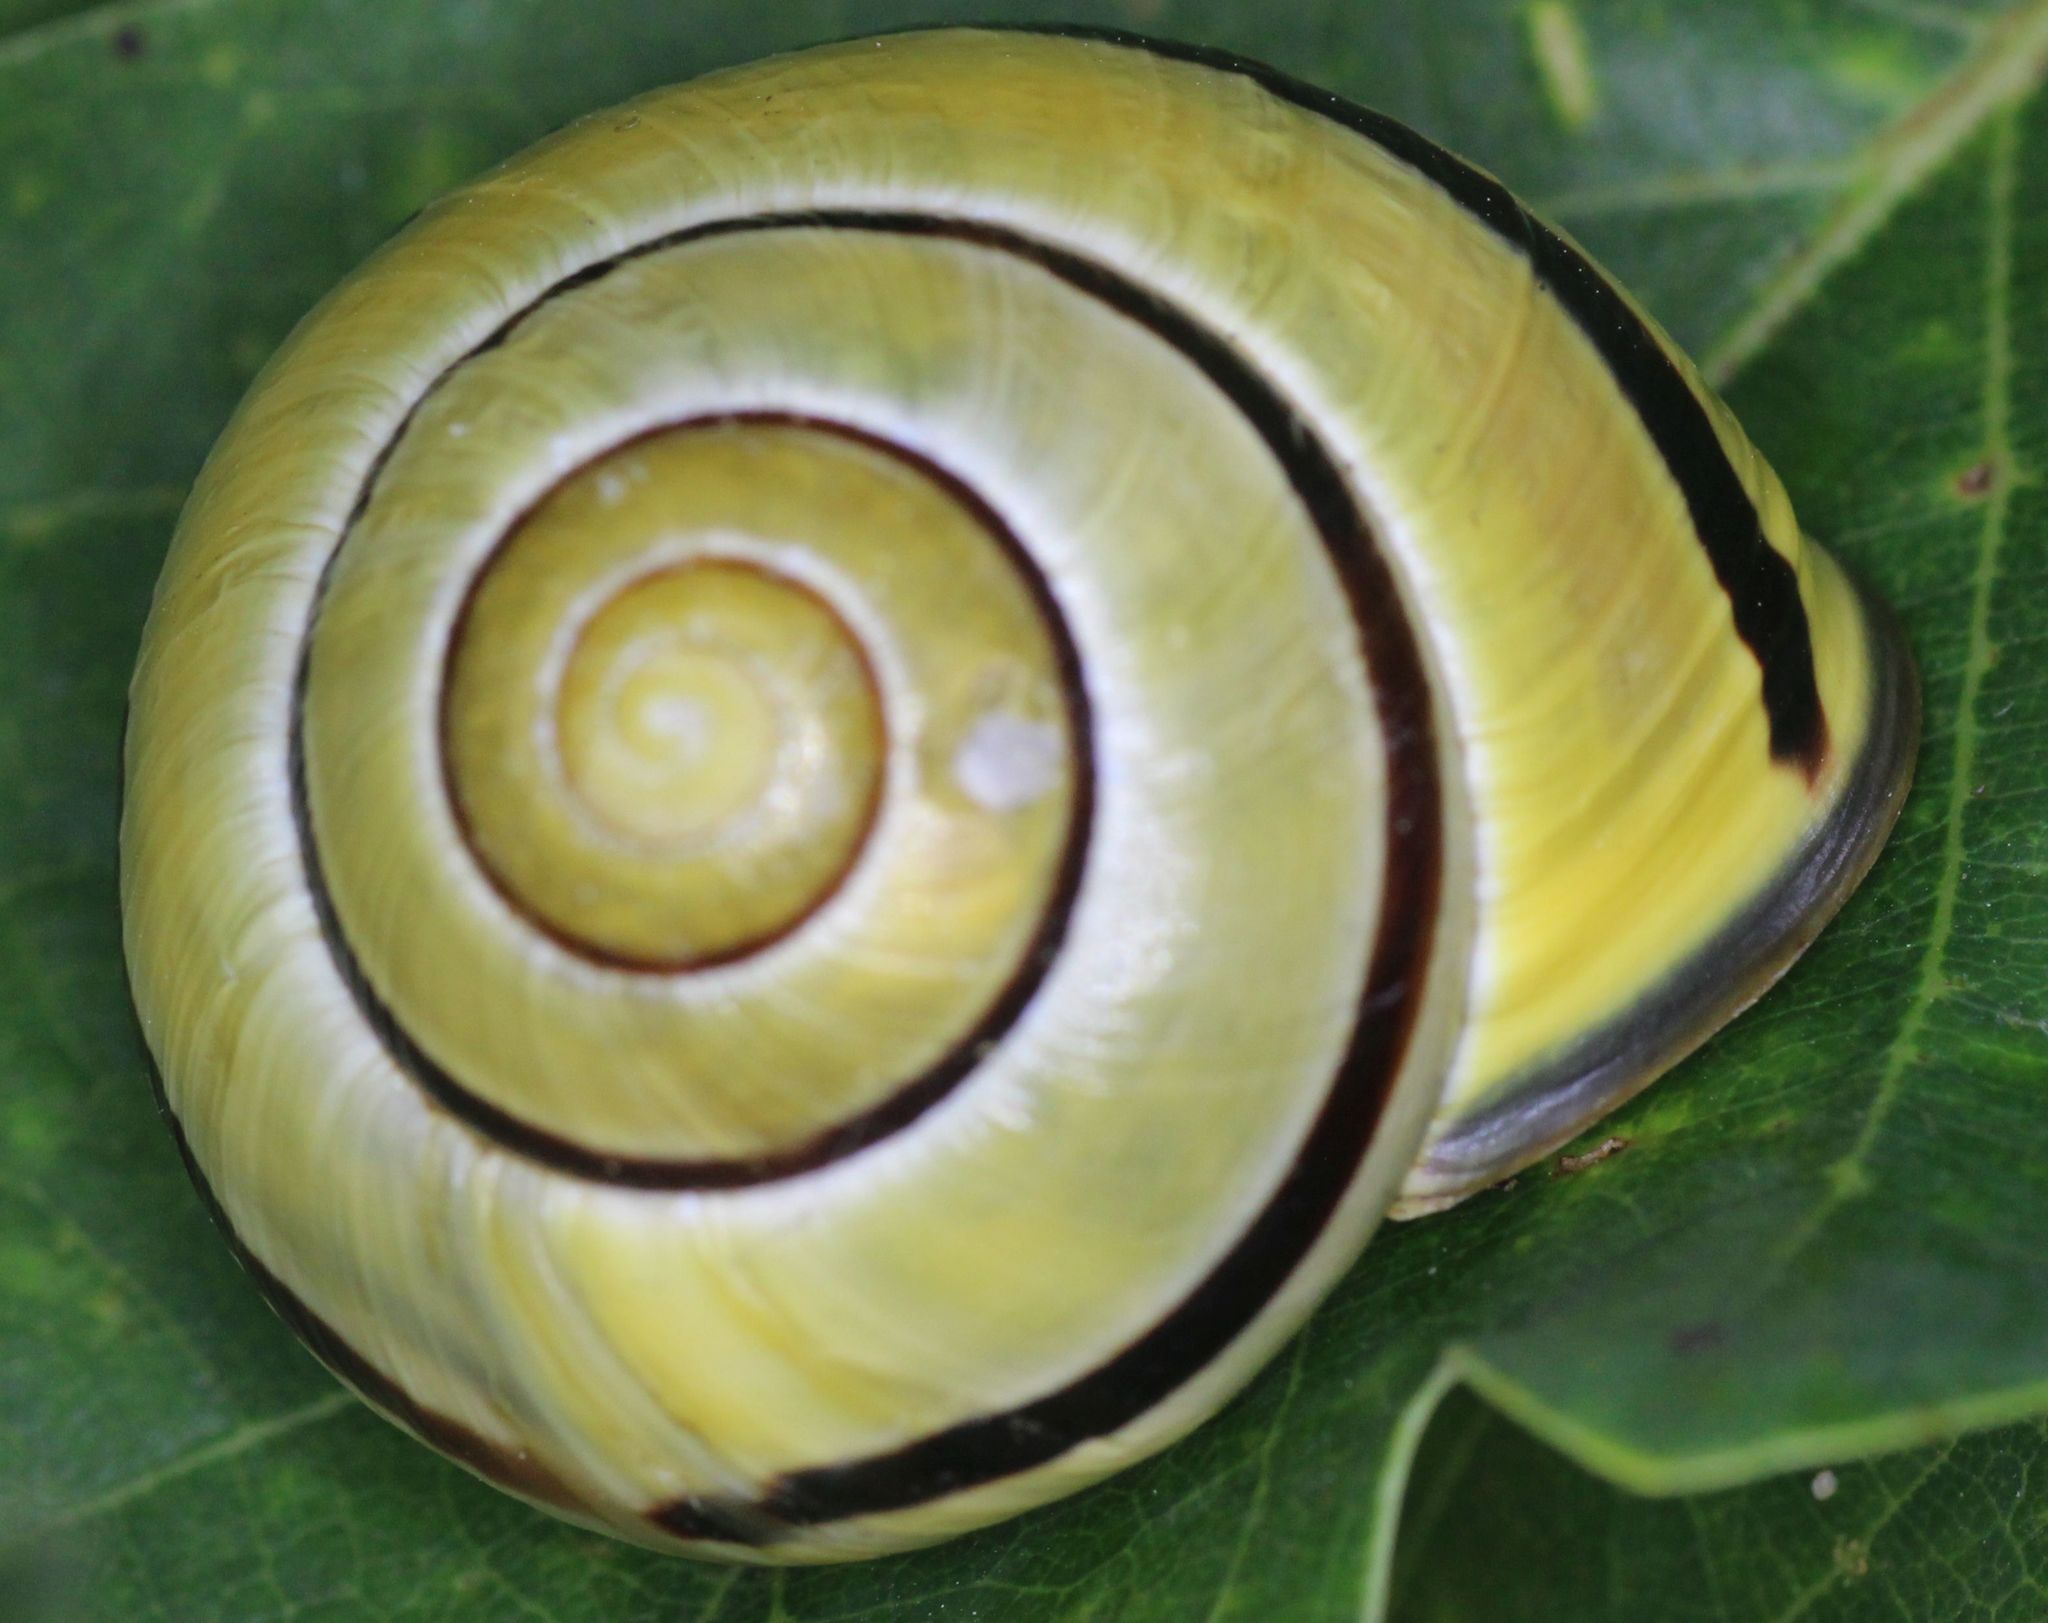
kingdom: Animalia
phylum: Mollusca
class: Gastropoda
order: Stylommatophora
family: Helicidae
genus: Cepaea
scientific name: Cepaea nemoralis
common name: Grovesnail
